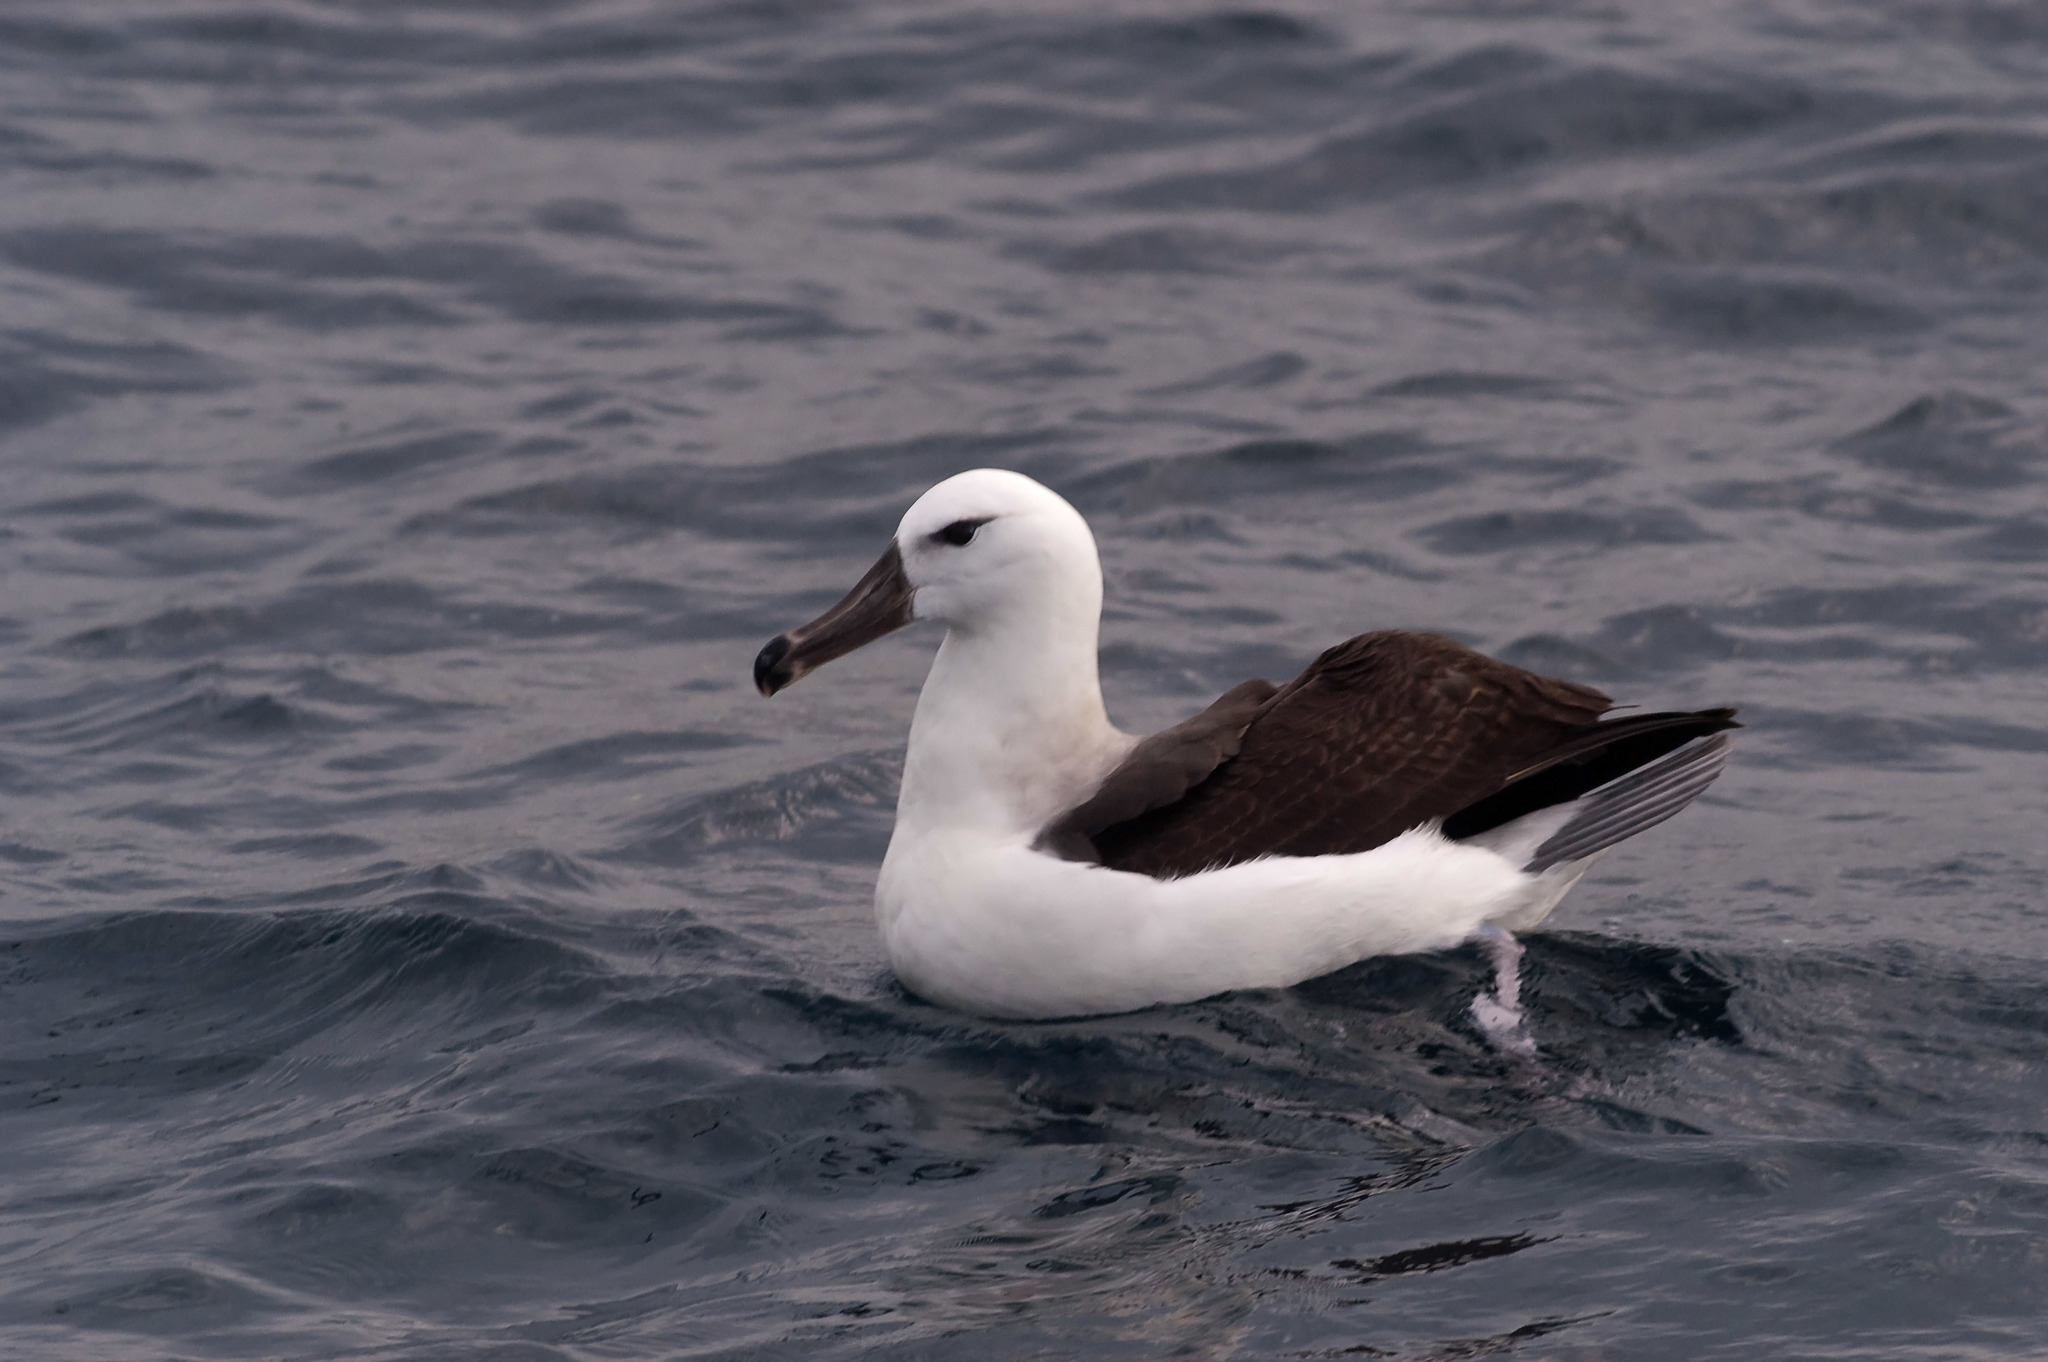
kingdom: Animalia
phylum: Chordata
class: Aves
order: Procellariiformes
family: Diomedeidae
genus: Thalassarche
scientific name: Thalassarche melanophris
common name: Black-browed albatross
